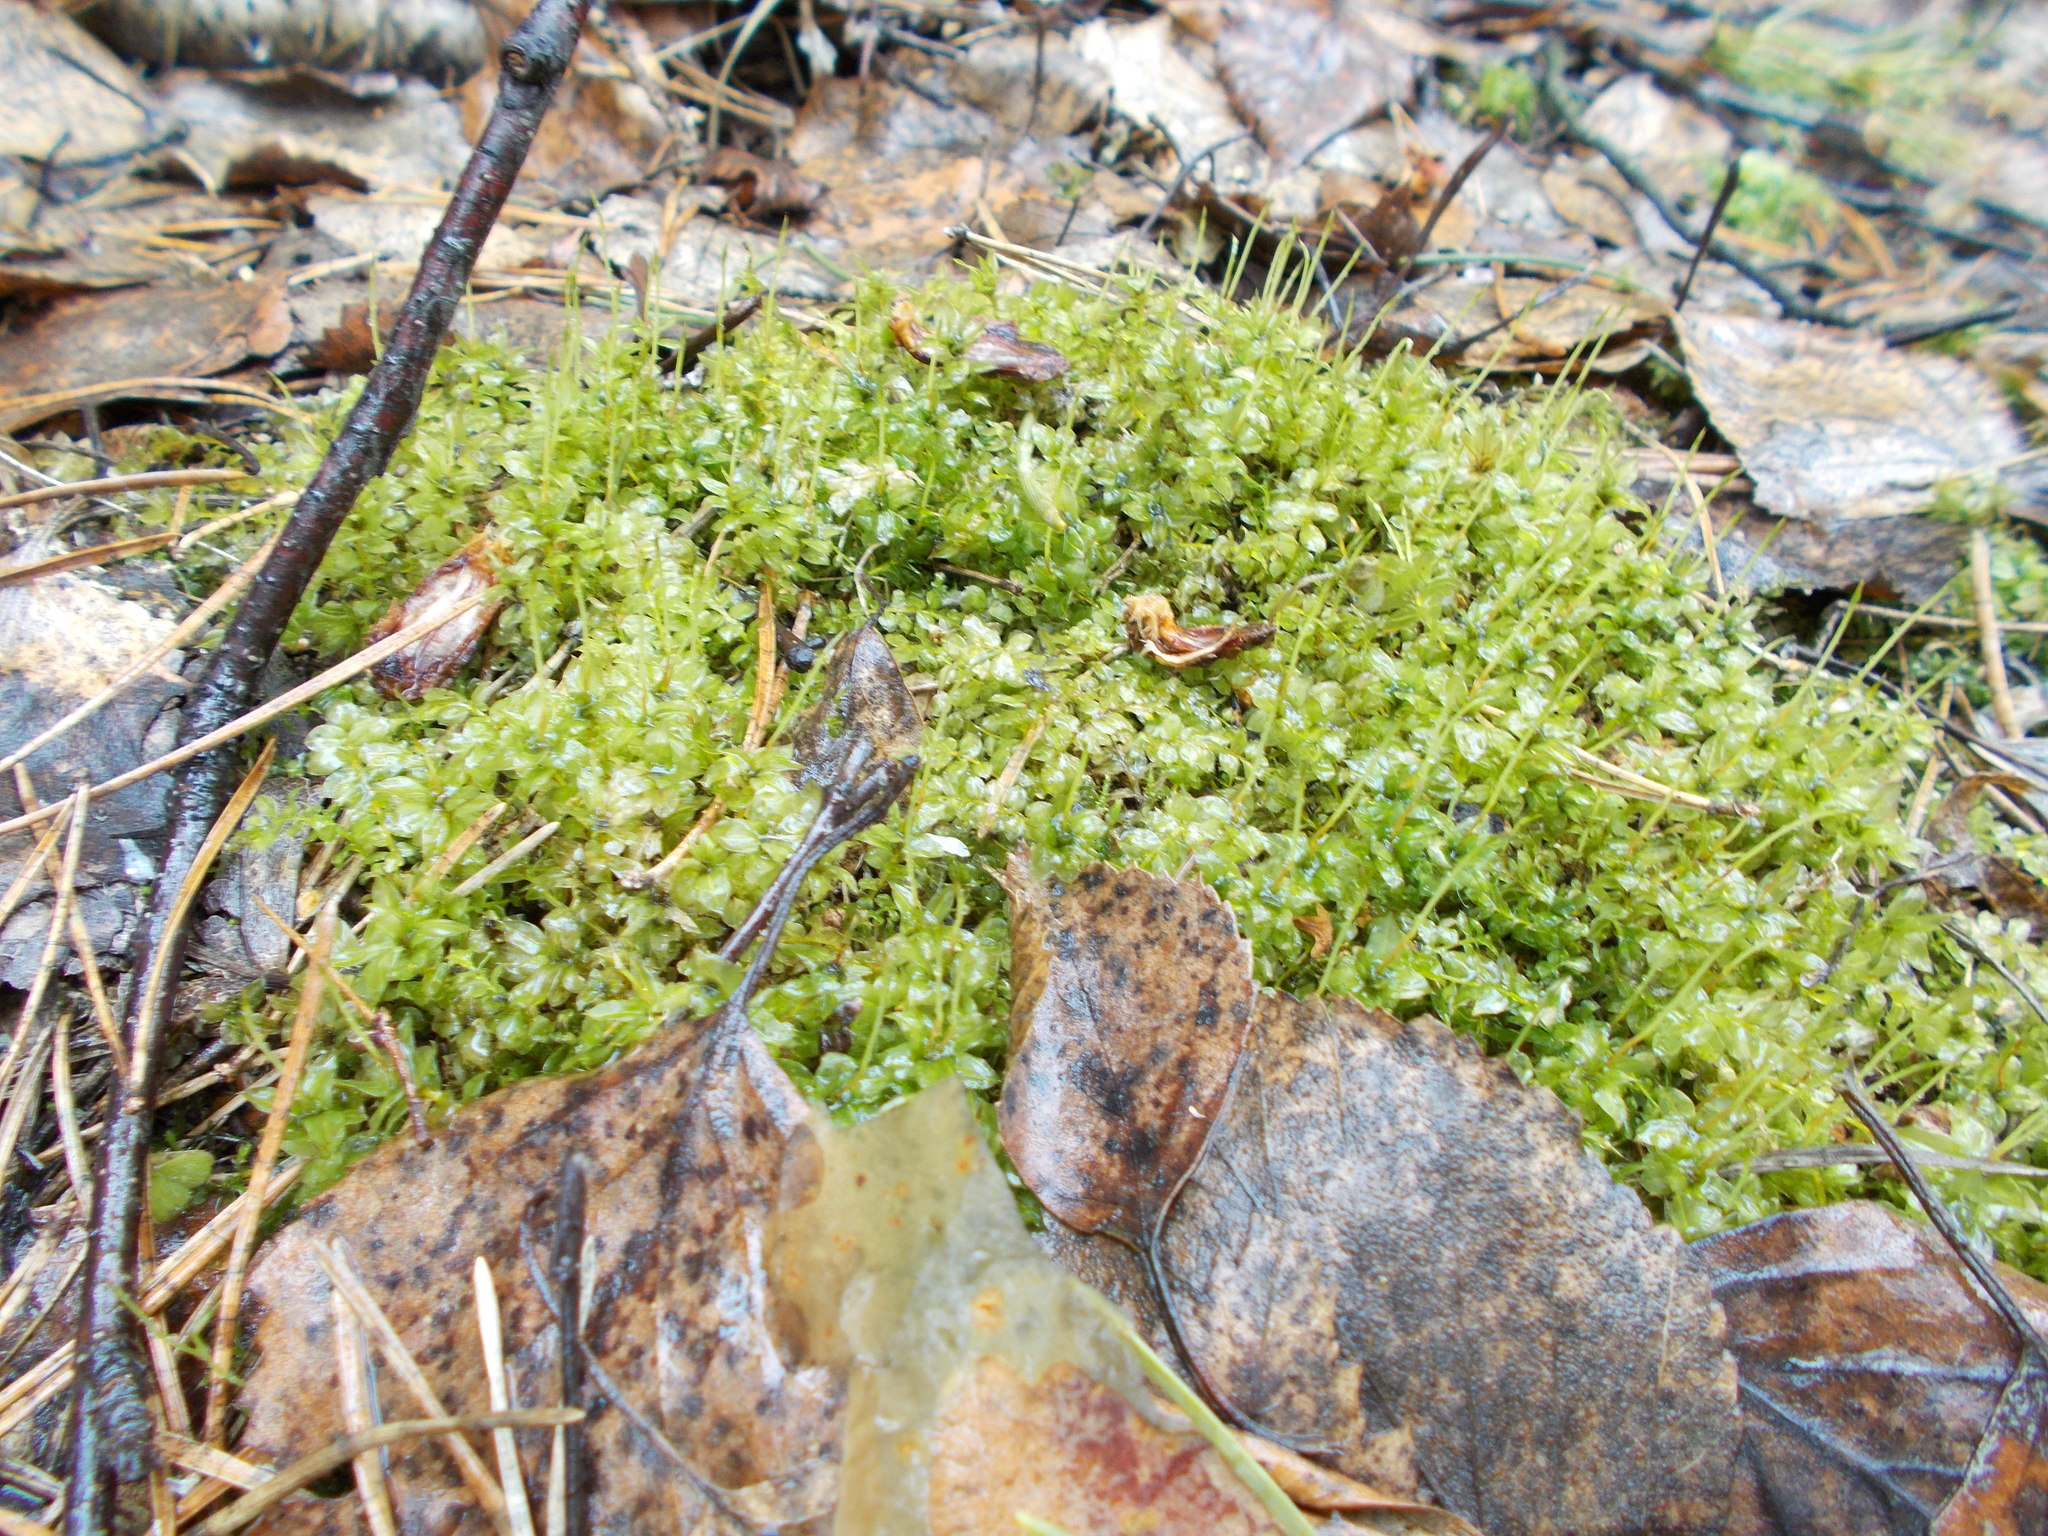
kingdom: Plantae
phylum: Bryophyta
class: Bryopsida
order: Bryales
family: Mniaceae
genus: Plagiomnium
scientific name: Plagiomnium cuspidatum
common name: Woodsy leafy moss
